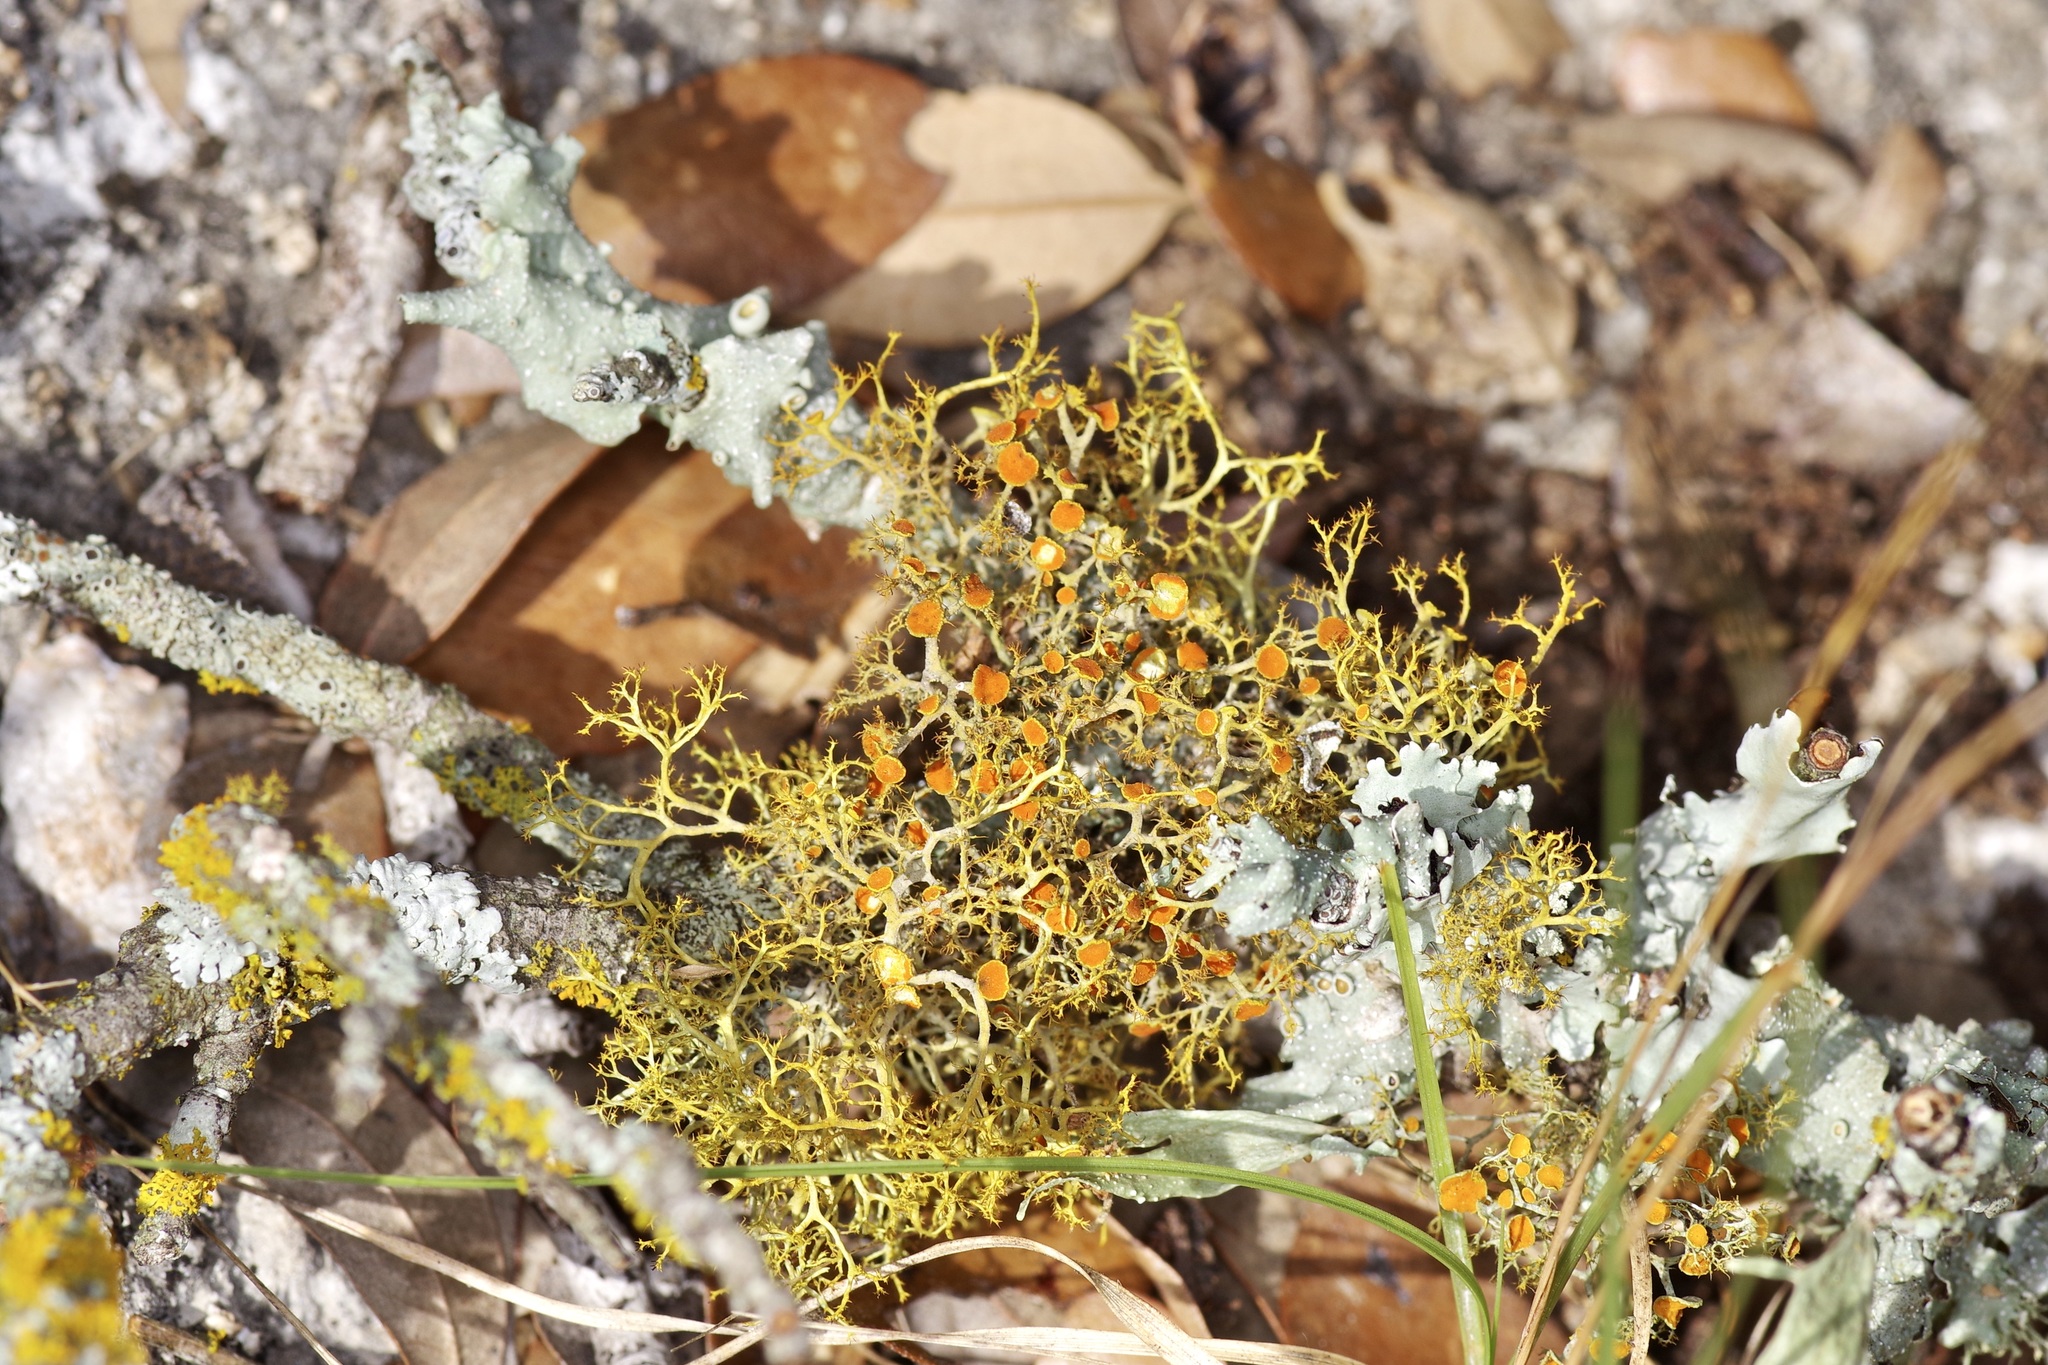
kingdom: Fungi
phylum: Ascomycota
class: Lecanoromycetes
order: Teloschistales
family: Teloschistaceae
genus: Teloschistes
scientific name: Teloschistes exilis
